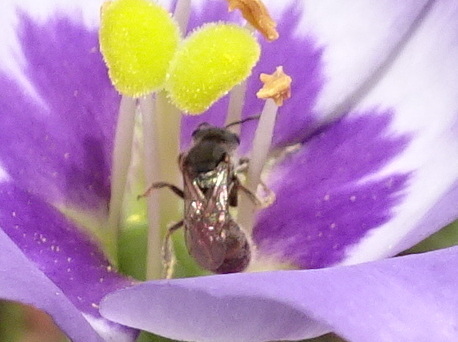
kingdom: Animalia
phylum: Arthropoda
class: Insecta
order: Hymenoptera
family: Halictidae
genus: Dialictus
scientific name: Dialictus
